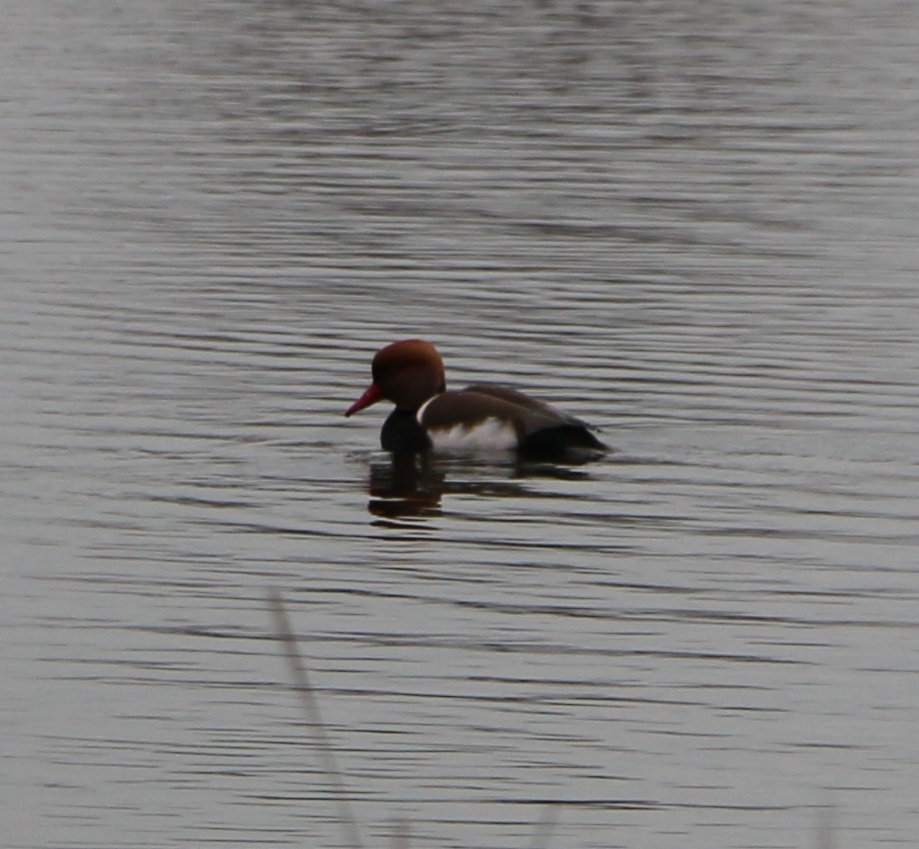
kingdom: Animalia
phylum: Chordata
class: Aves
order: Anseriformes
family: Anatidae
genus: Netta
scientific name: Netta rufina
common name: Red-crested pochard
